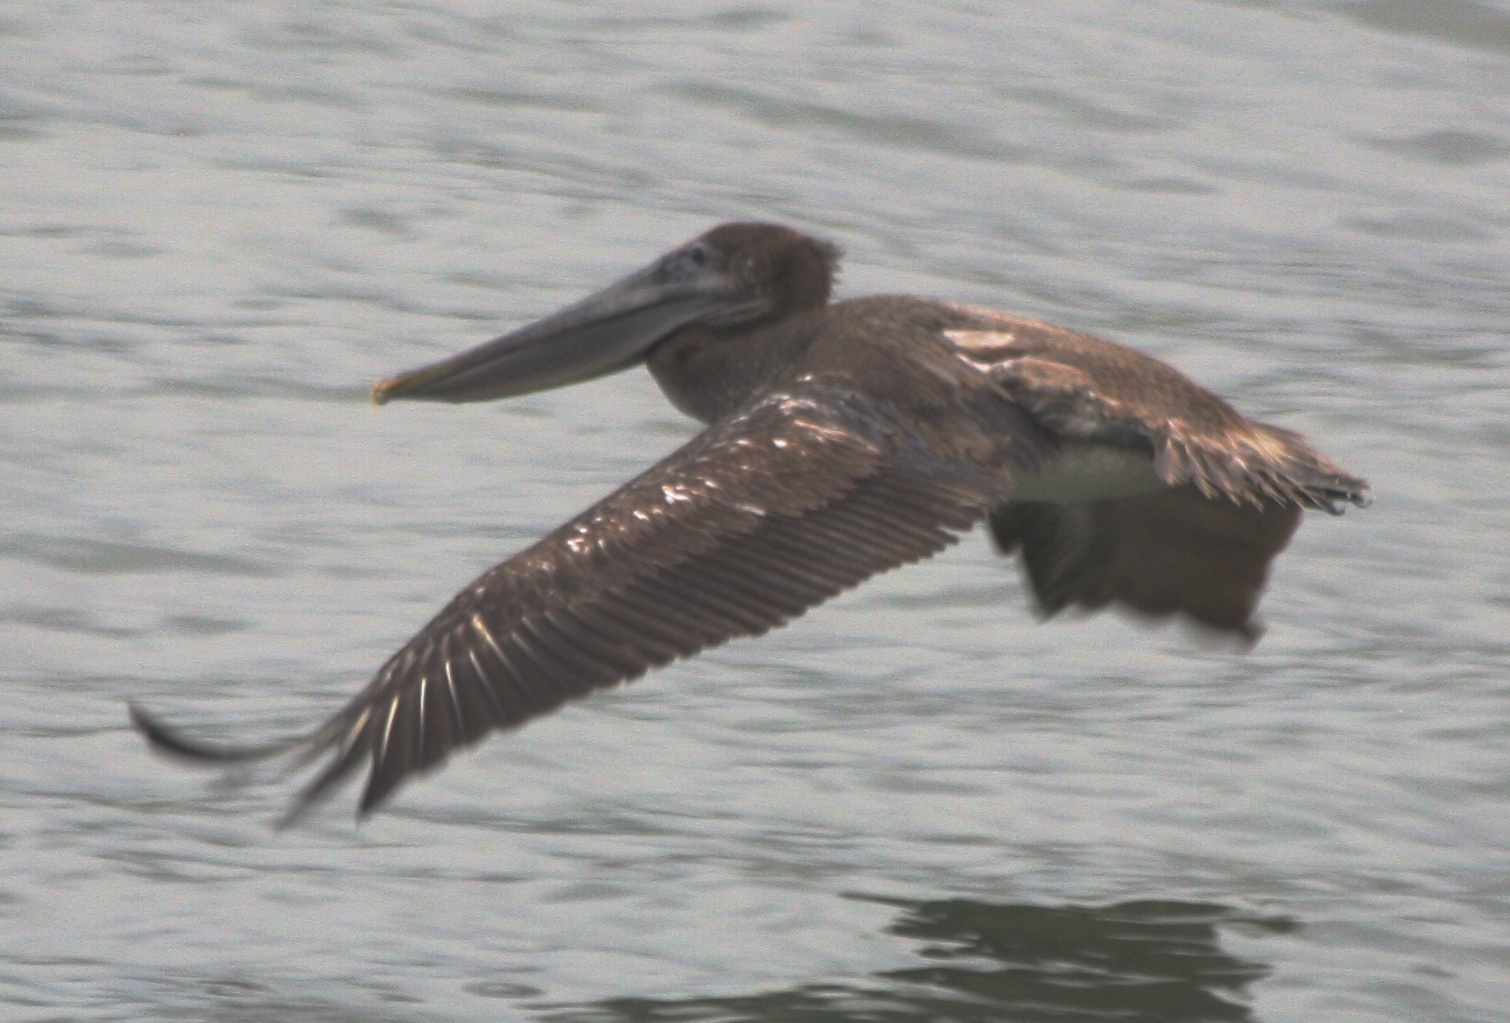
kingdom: Animalia
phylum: Chordata
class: Aves
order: Pelecaniformes
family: Pelecanidae
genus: Pelecanus
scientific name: Pelecanus occidentalis
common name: Brown pelican
